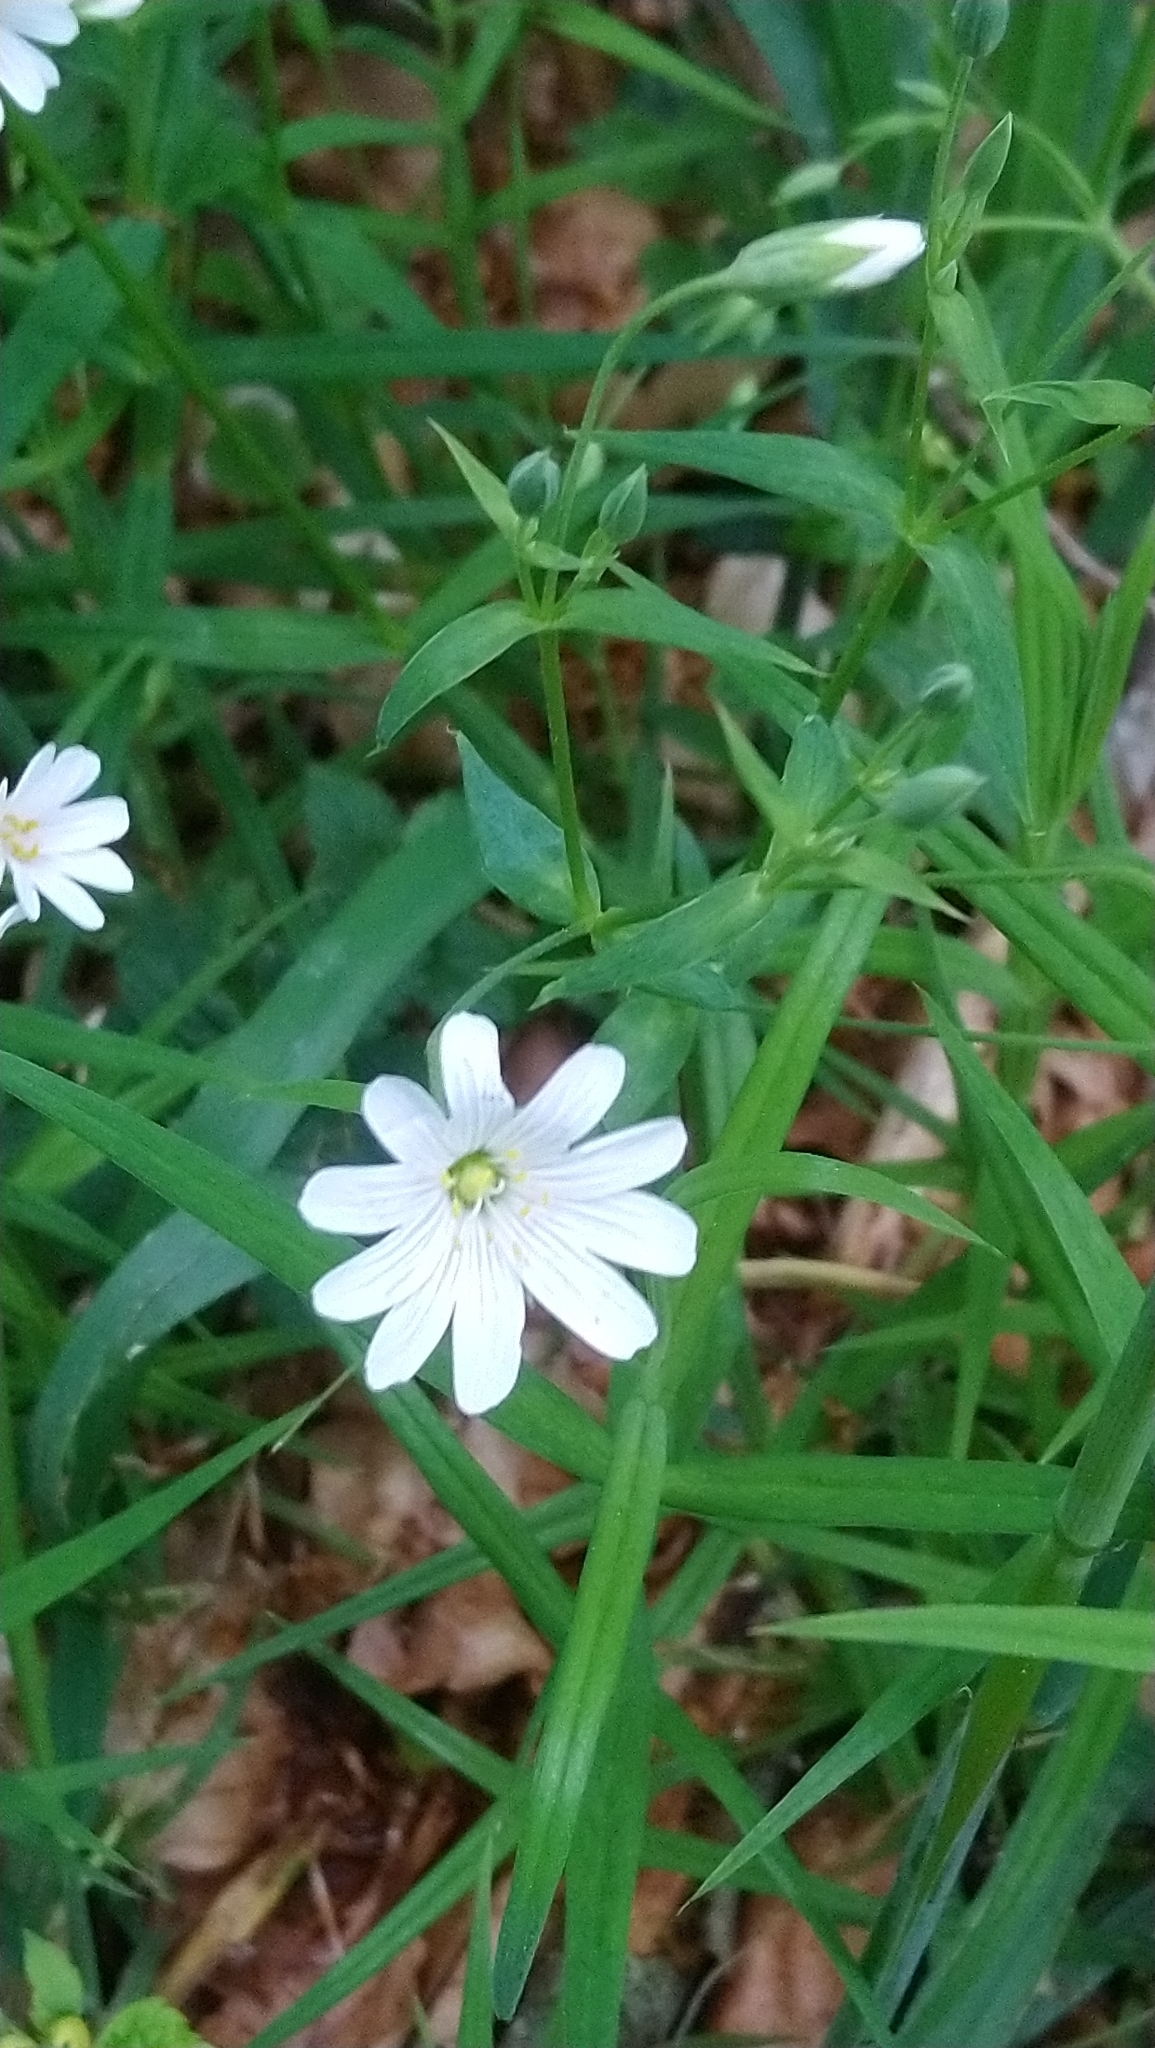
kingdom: Plantae
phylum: Tracheophyta
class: Magnoliopsida
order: Caryophyllales
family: Caryophyllaceae
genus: Rabelera
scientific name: Rabelera holostea
